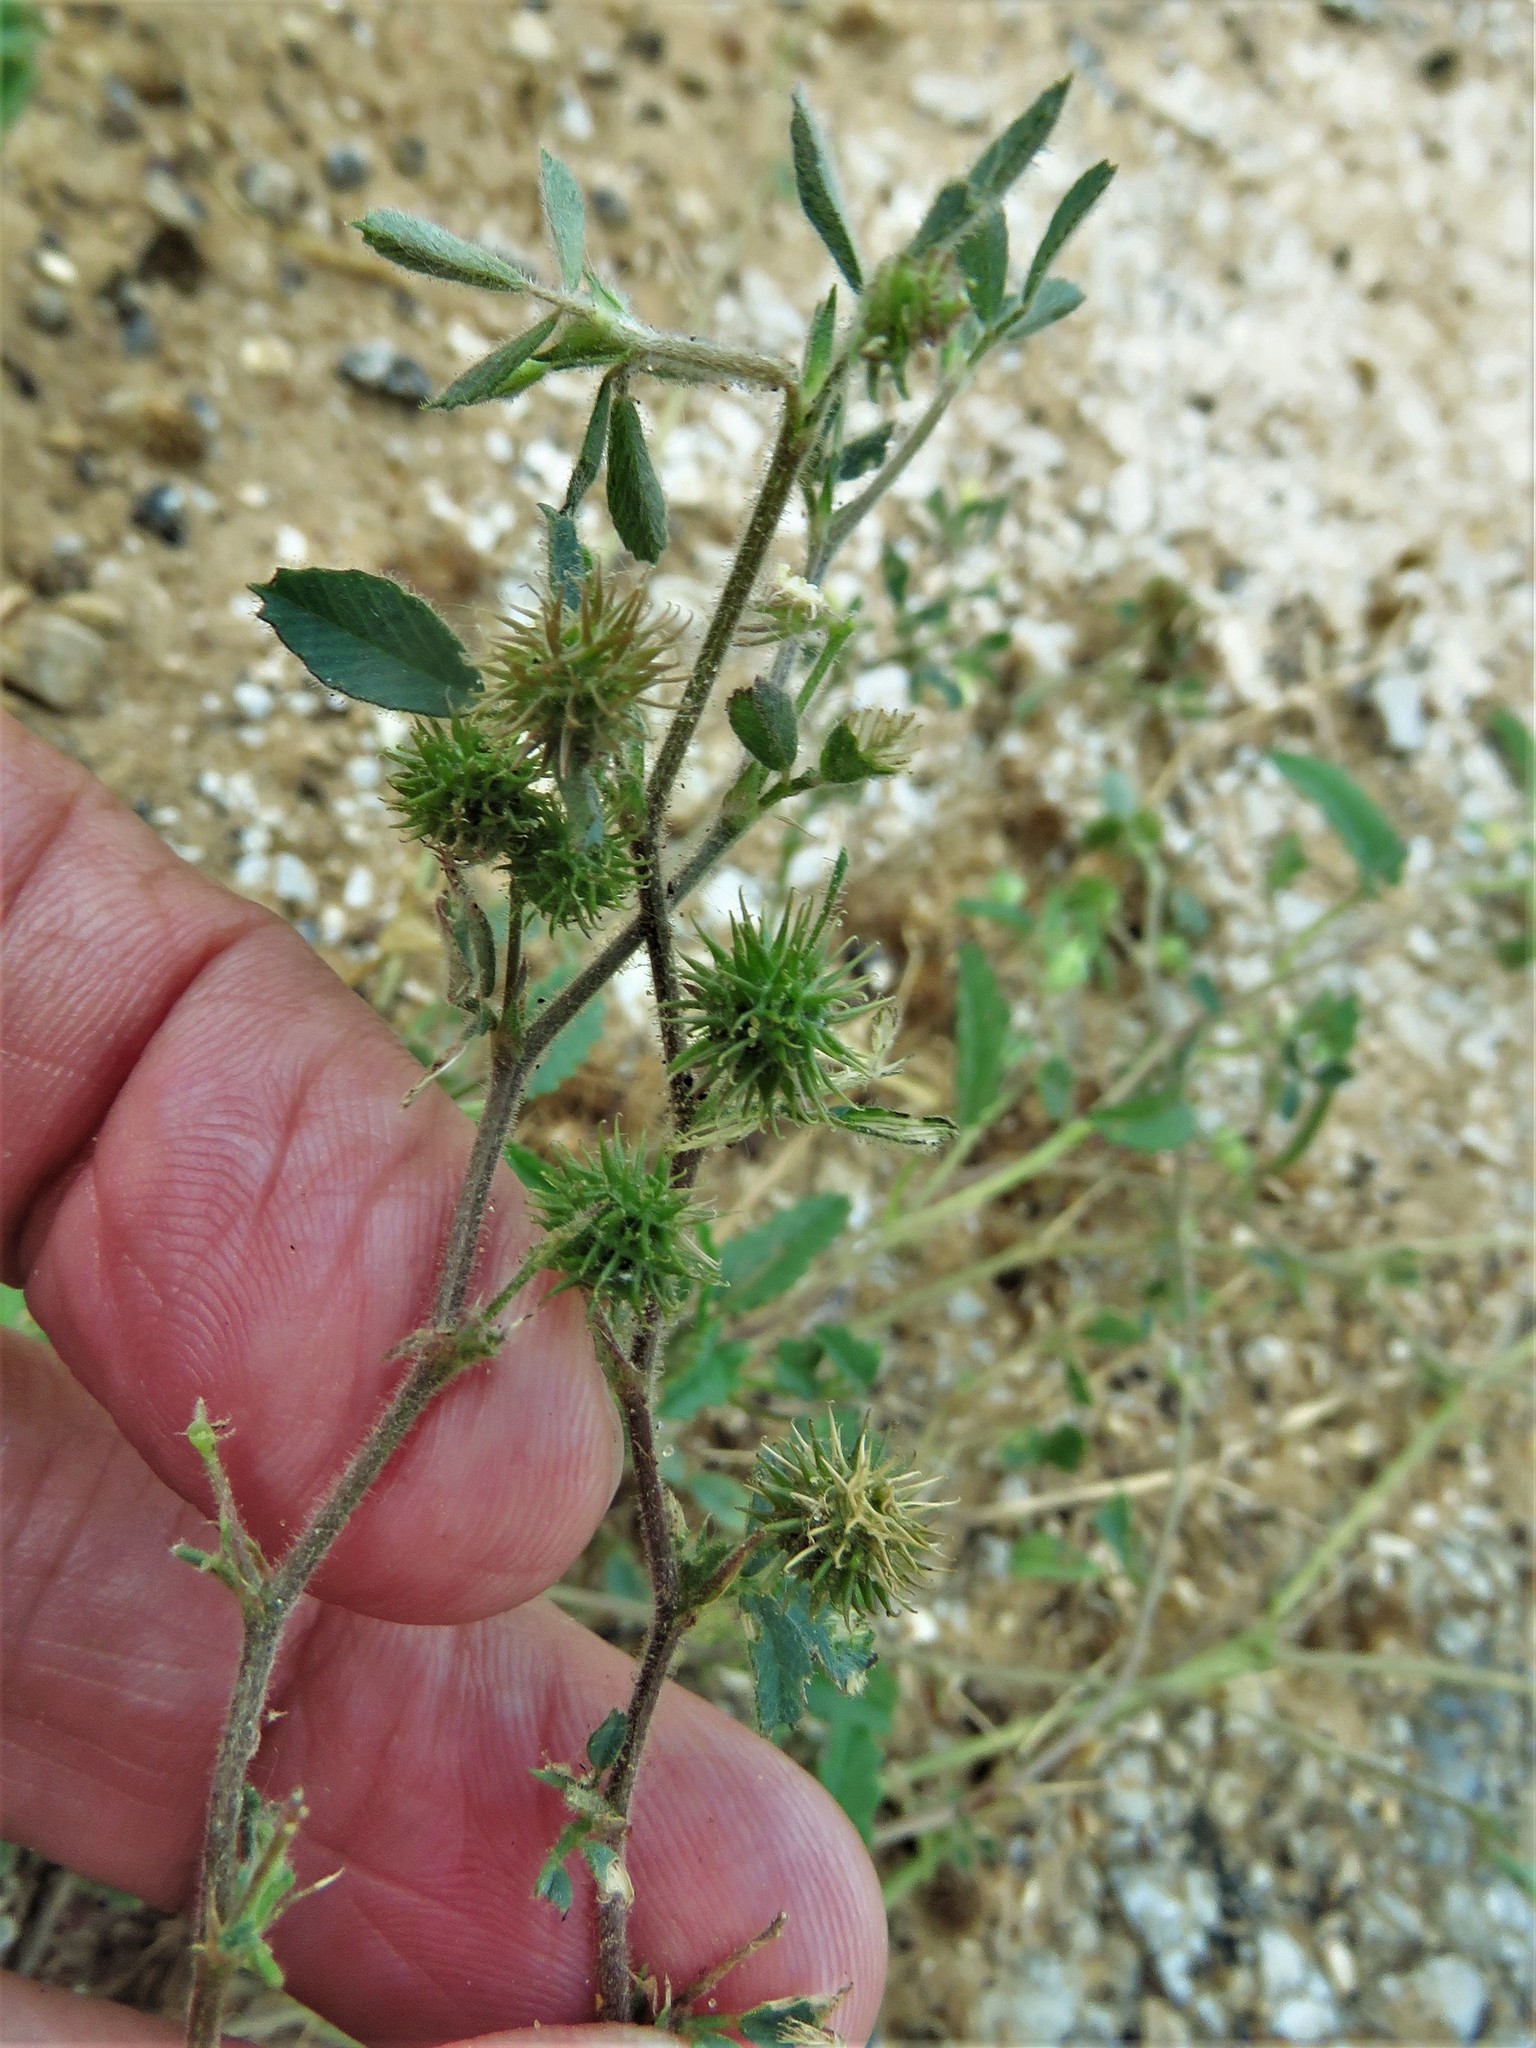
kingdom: Plantae
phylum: Tracheophyta
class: Magnoliopsida
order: Fabales
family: Fabaceae
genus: Medicago
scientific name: Medicago minima
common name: Little bur-clover
